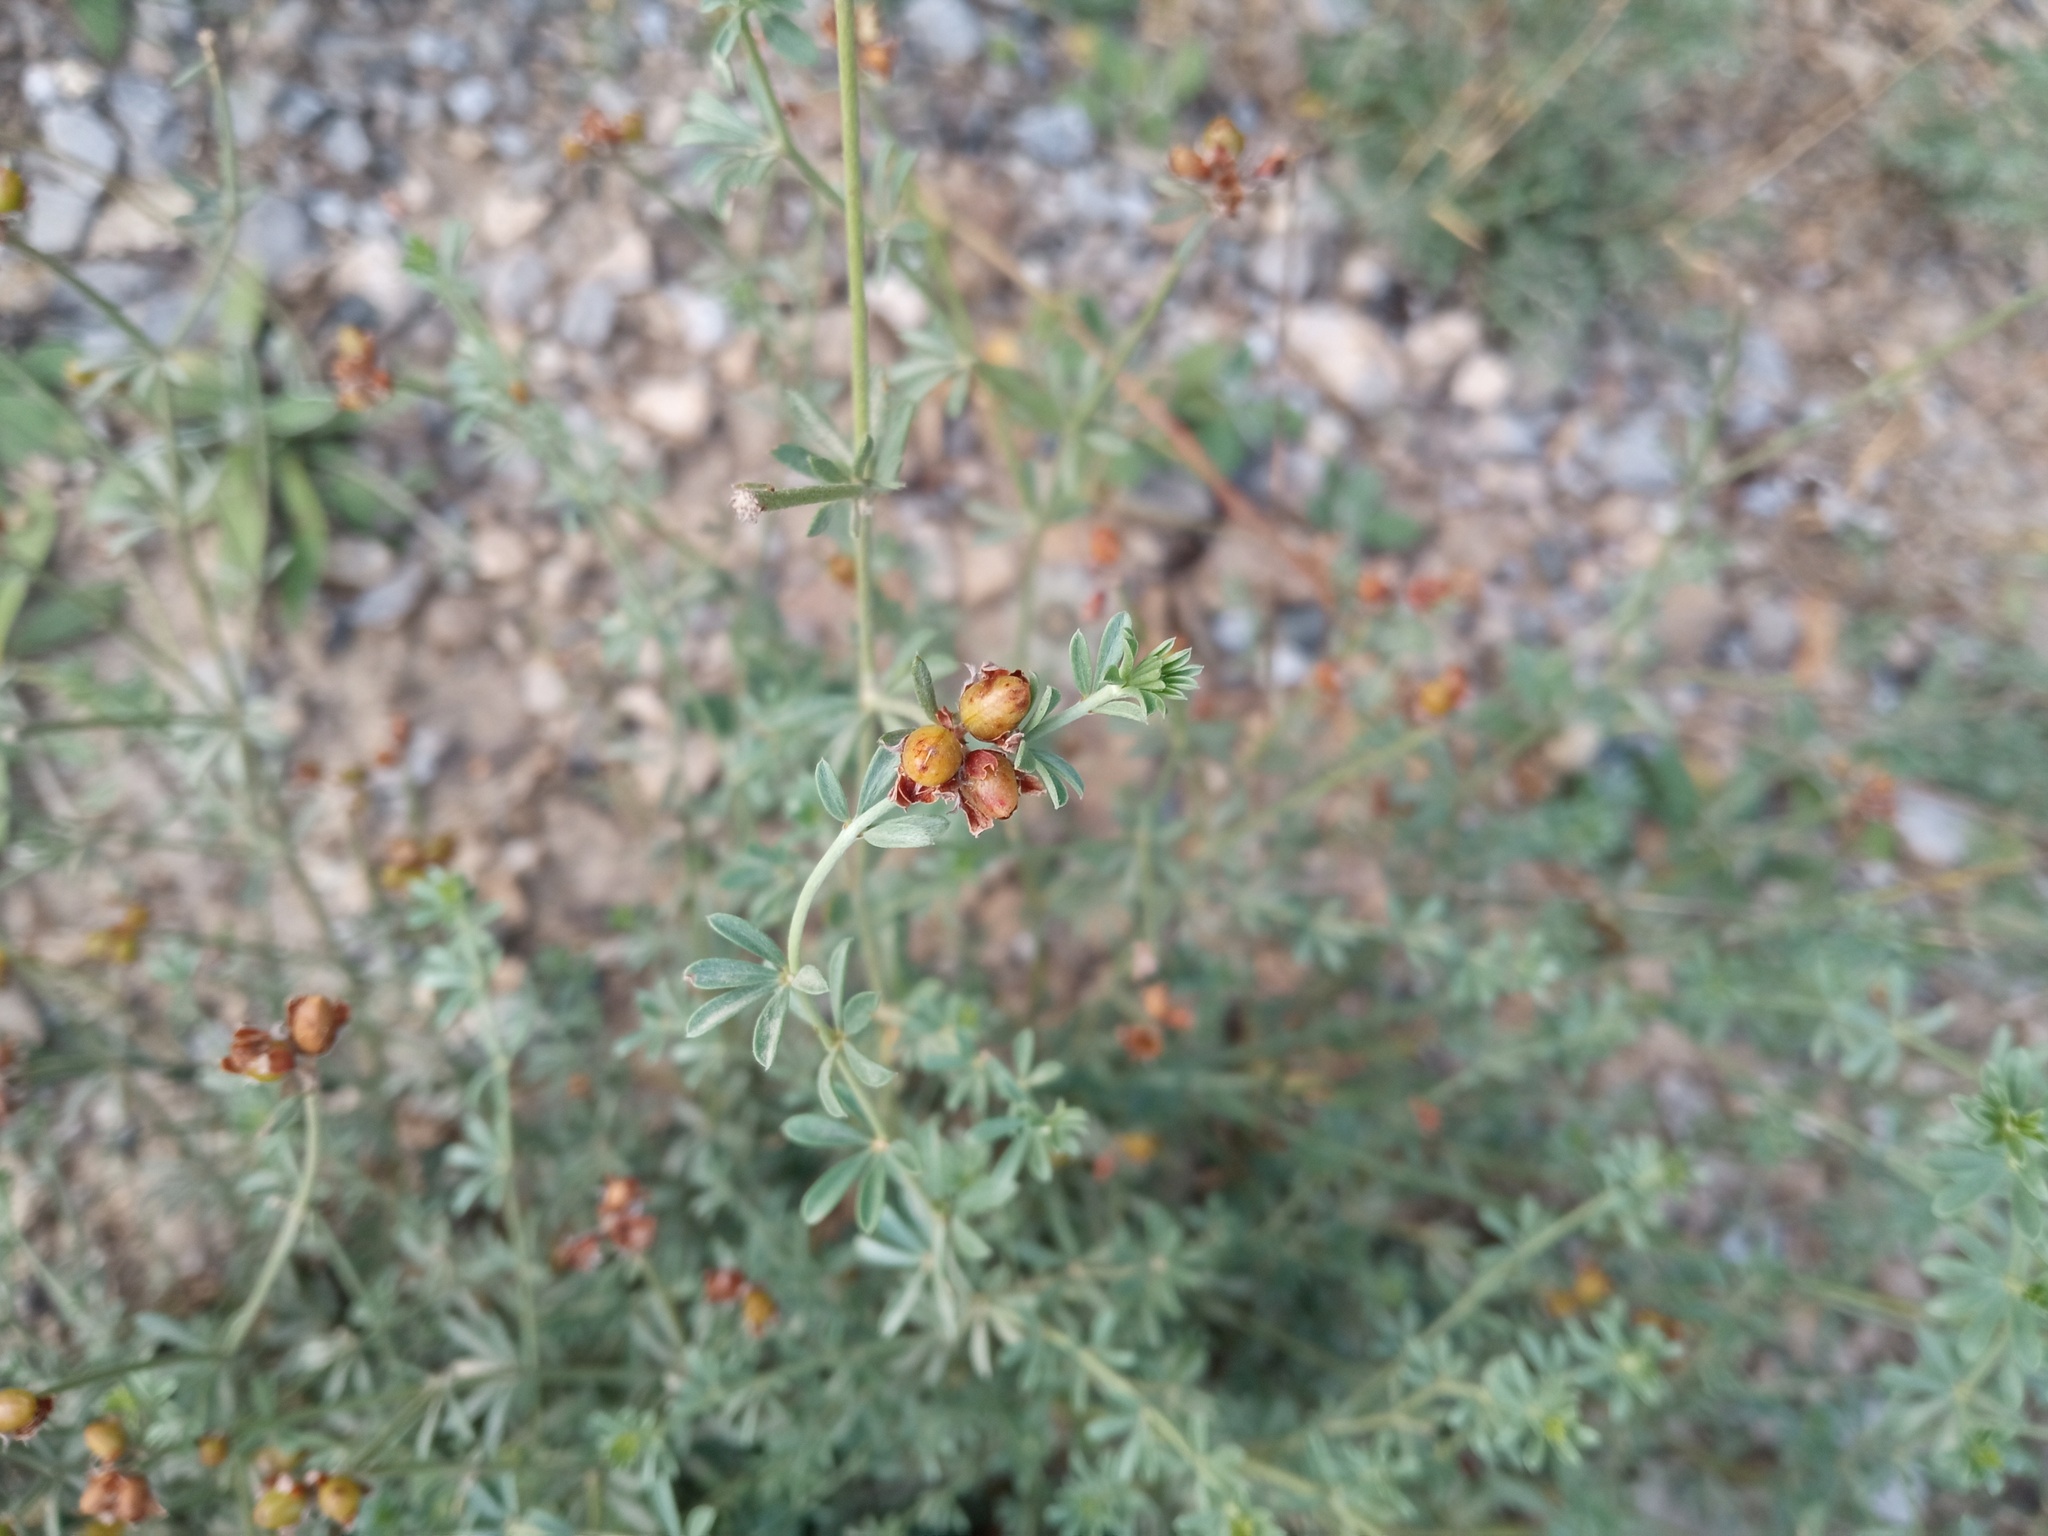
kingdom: Plantae
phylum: Tracheophyta
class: Magnoliopsida
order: Fabales
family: Fabaceae
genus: Lotus
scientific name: Lotus dorycnium
